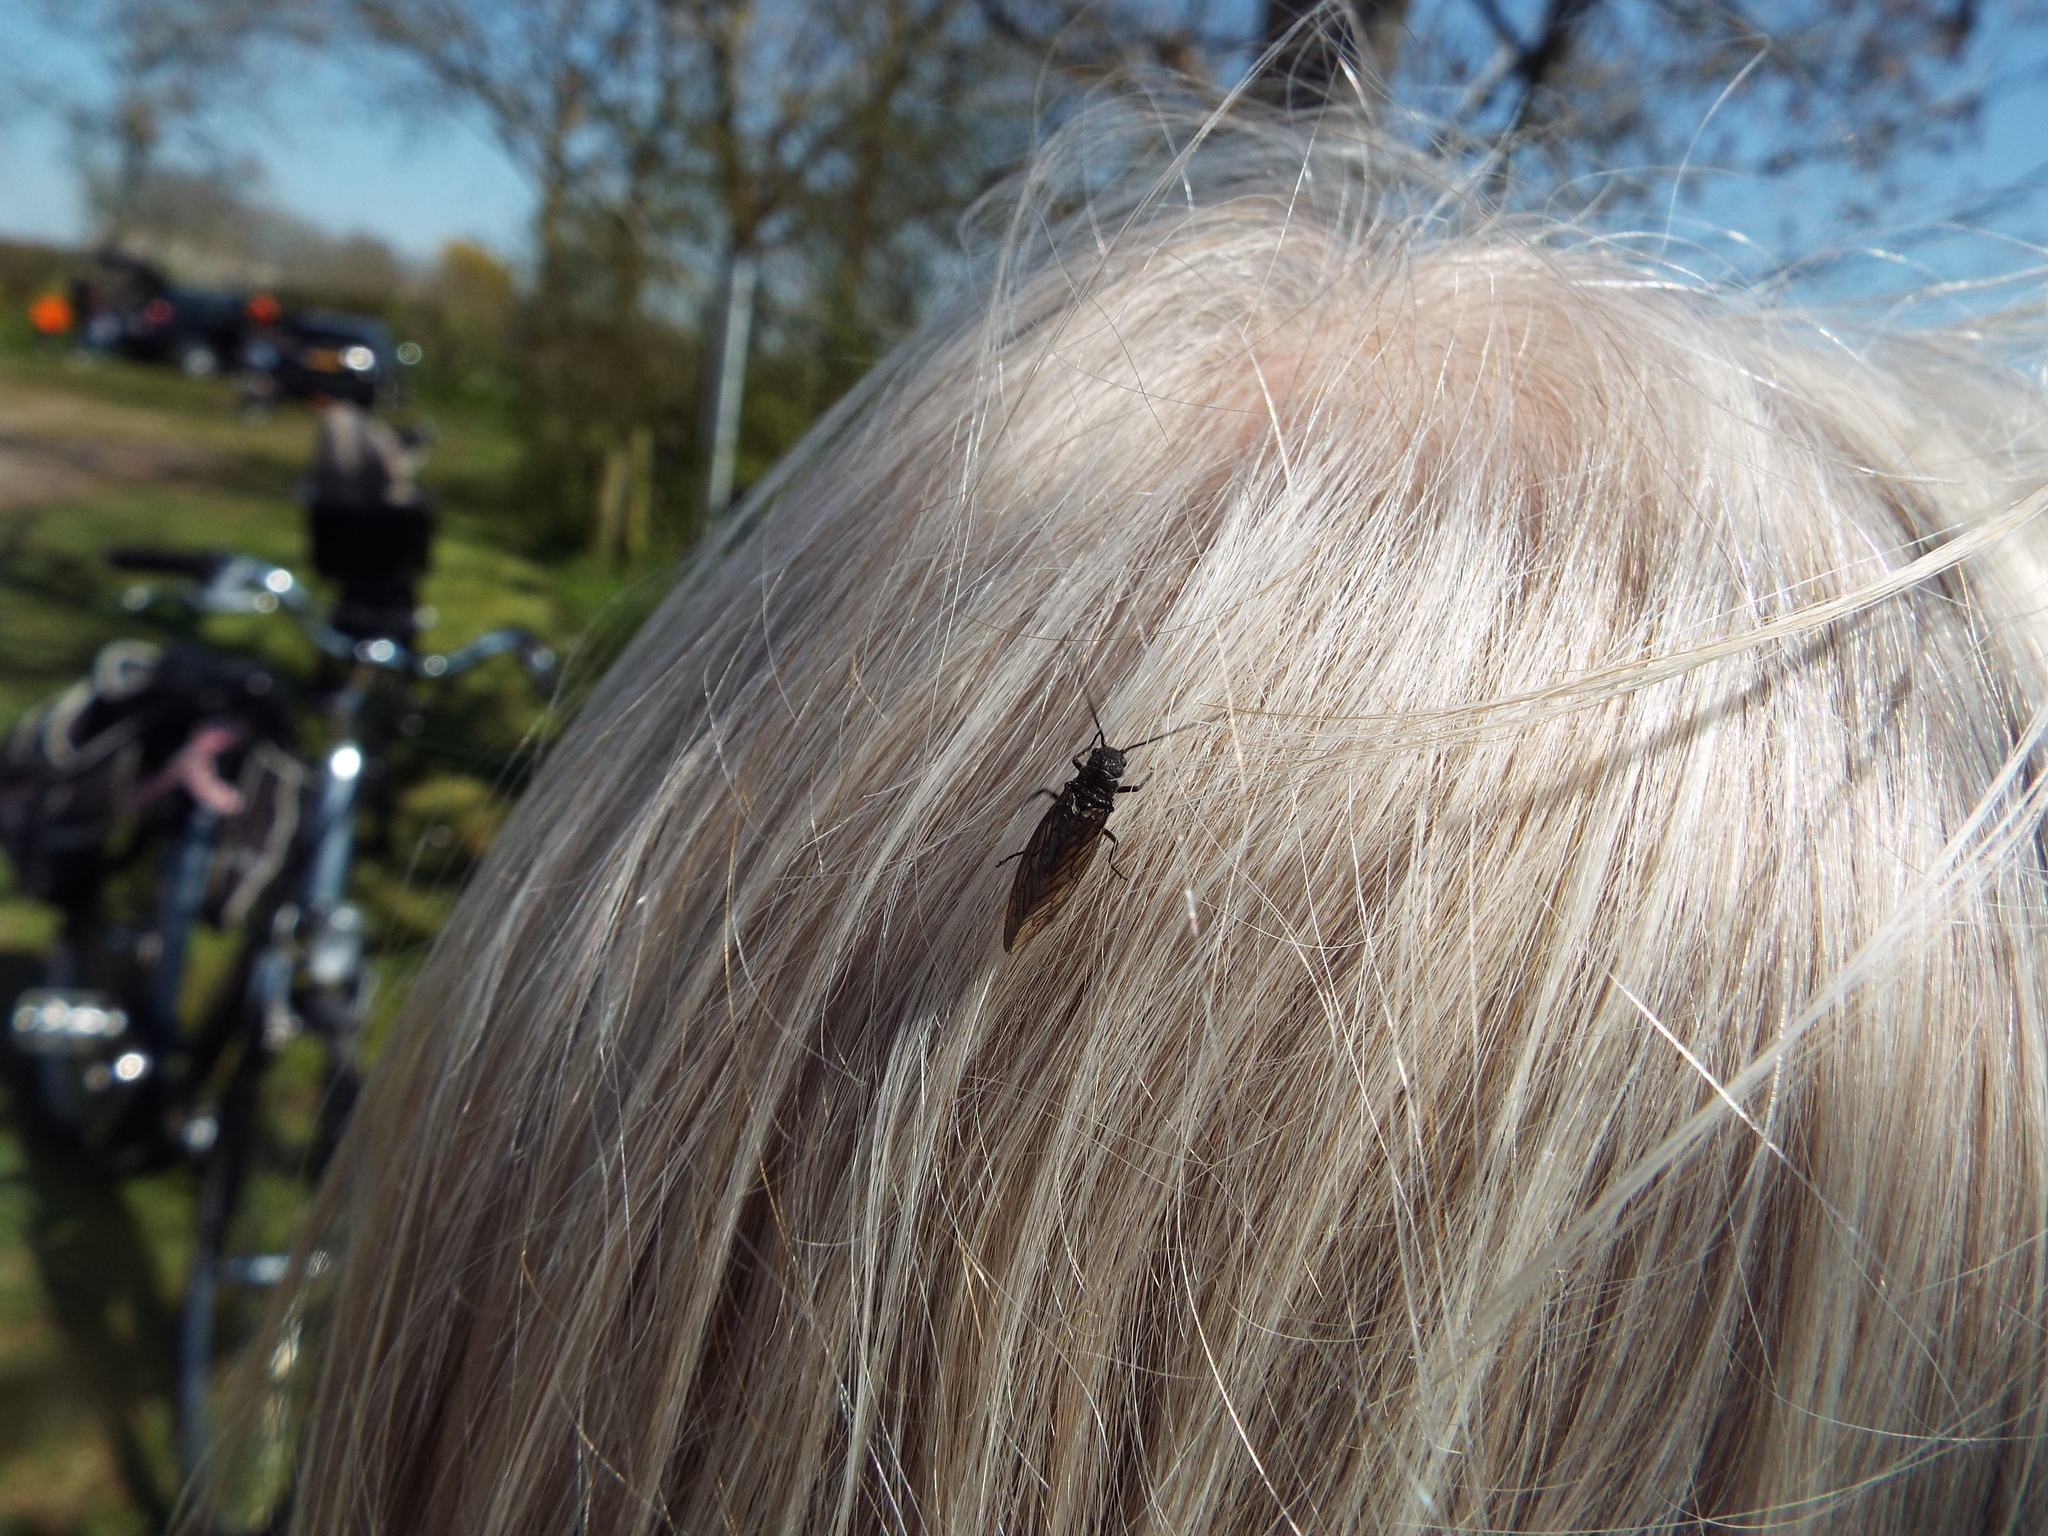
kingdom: Animalia
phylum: Arthropoda
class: Insecta
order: Megaloptera
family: Sialidae
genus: Sialis
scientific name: Sialis
